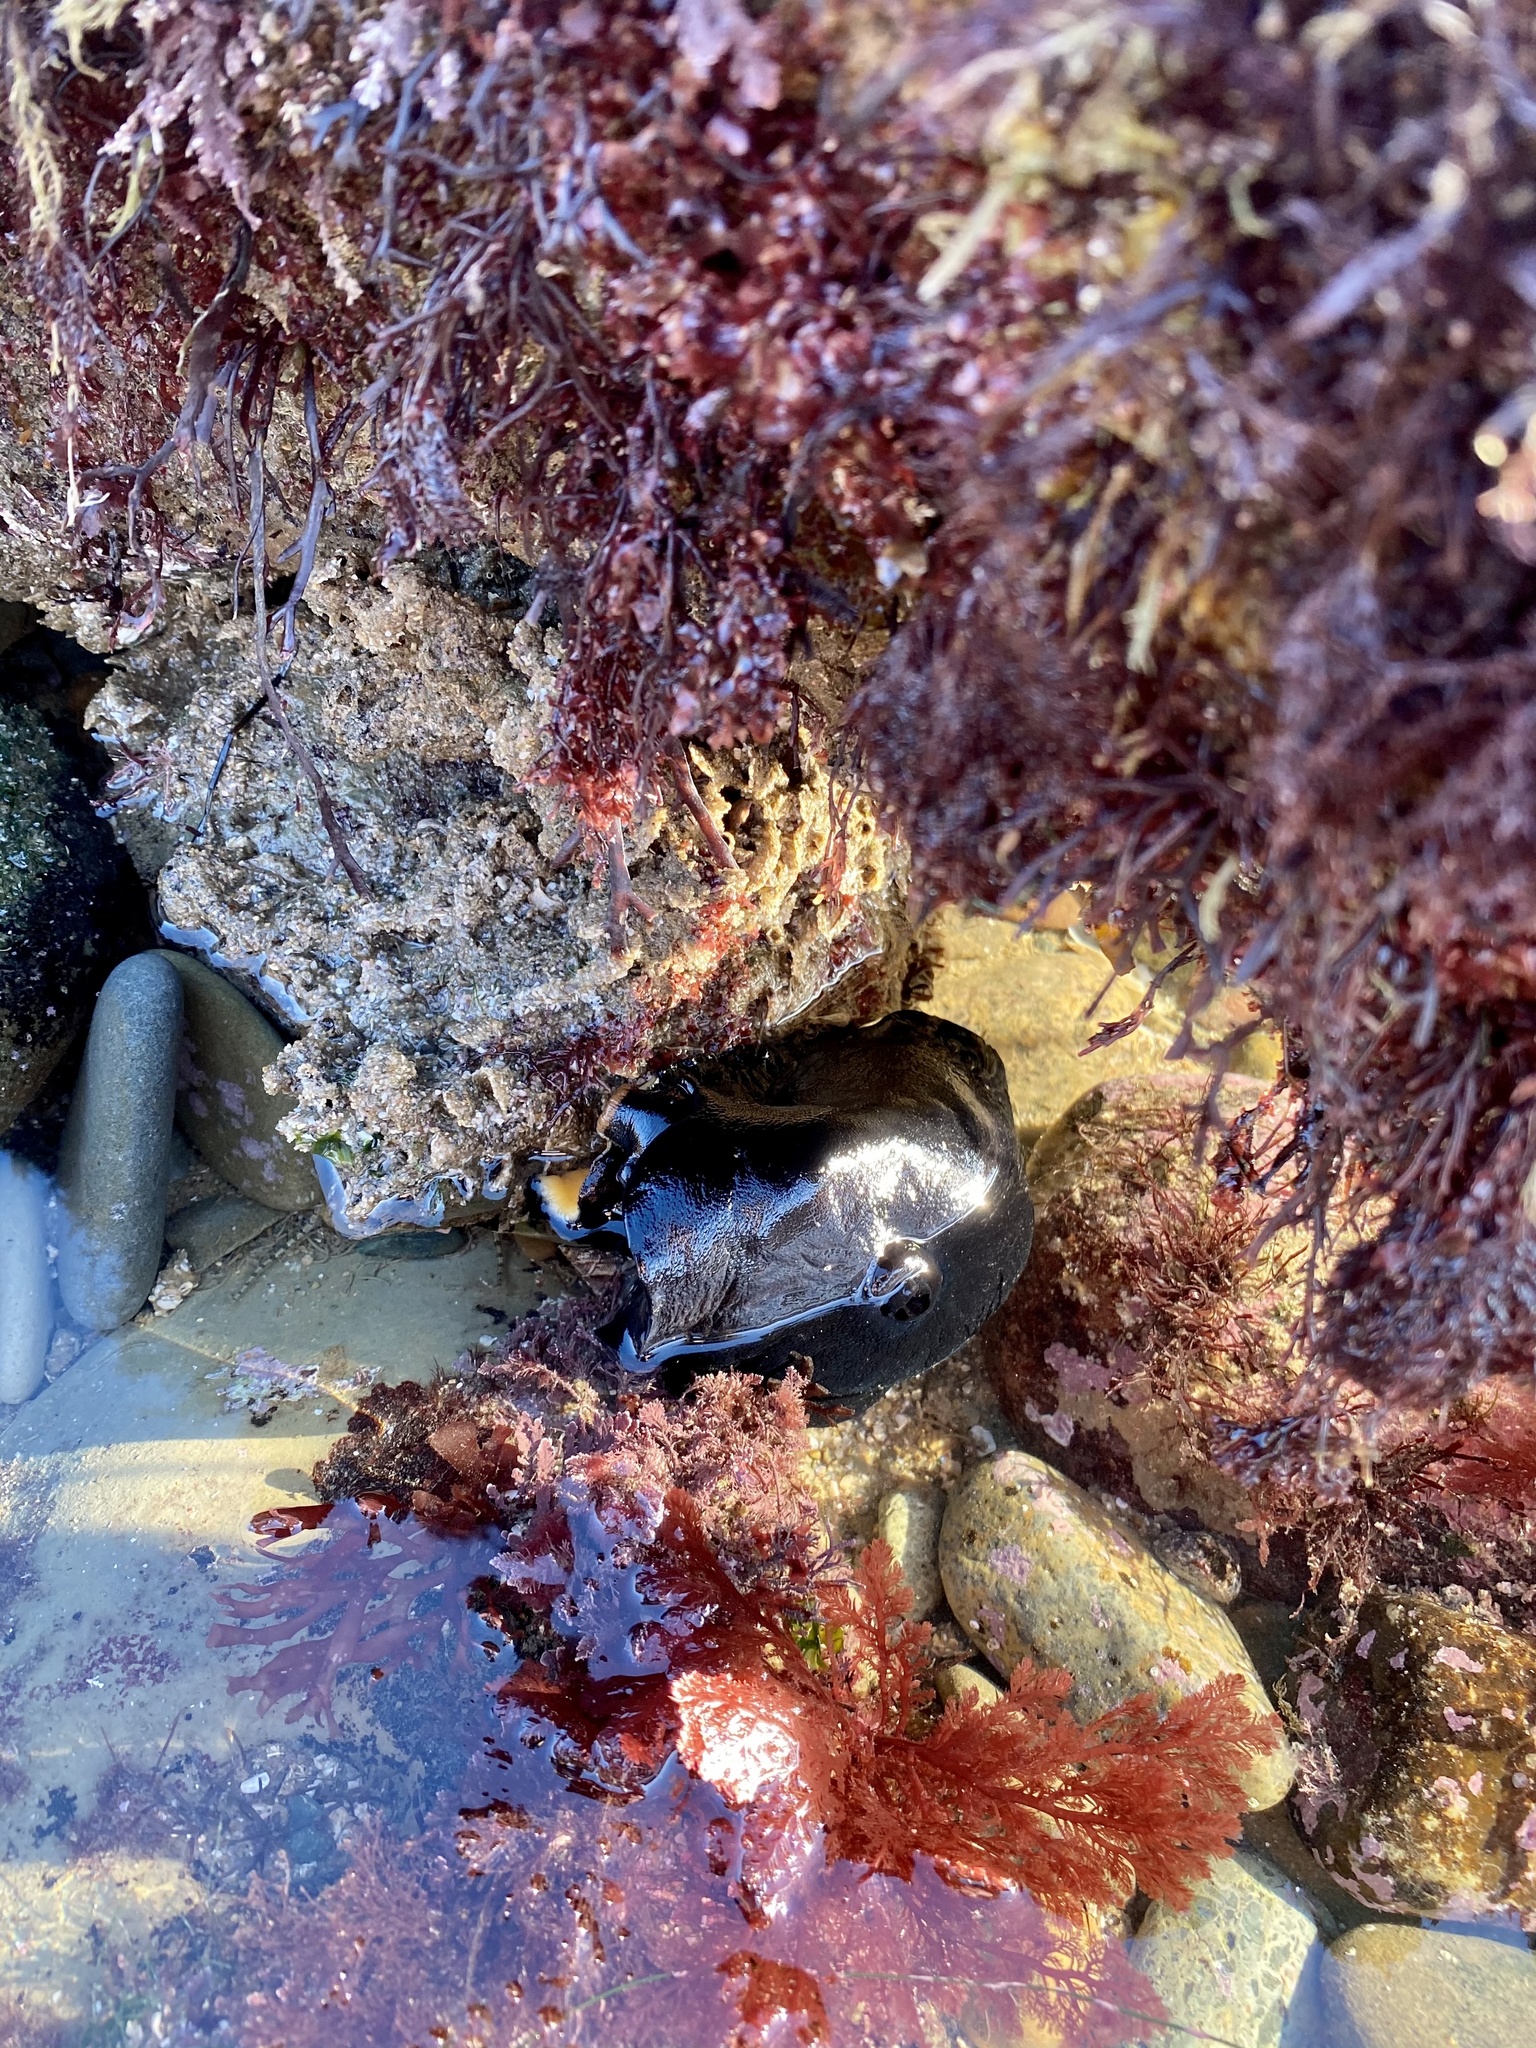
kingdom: Animalia
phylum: Mollusca
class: Gastropoda
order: Lepetellida
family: Fissurellidae
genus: Megathura
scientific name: Megathura crenulata
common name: Giant keyhole limpet
